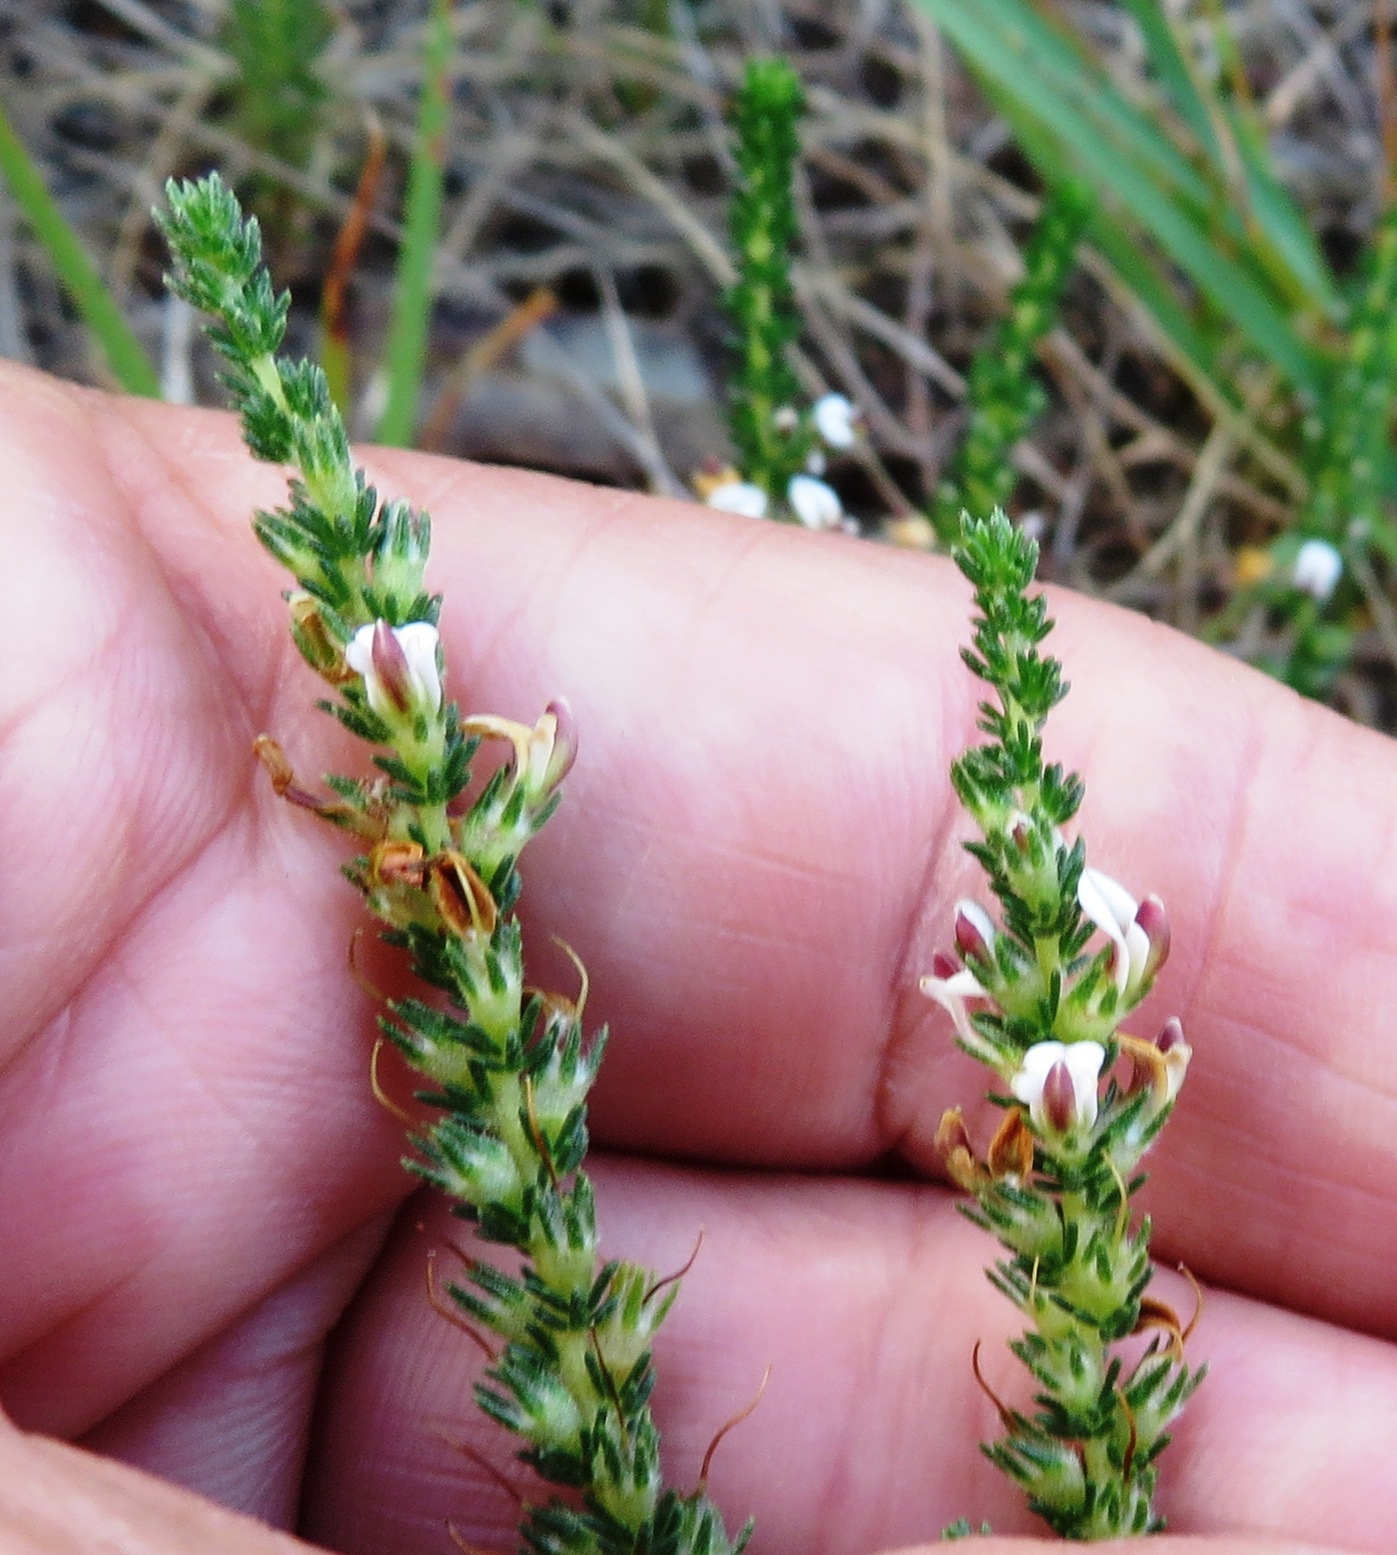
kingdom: Plantae
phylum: Tracheophyta
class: Magnoliopsida
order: Fabales
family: Fabaceae
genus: Aspalathus
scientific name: Aspalathus hispida
